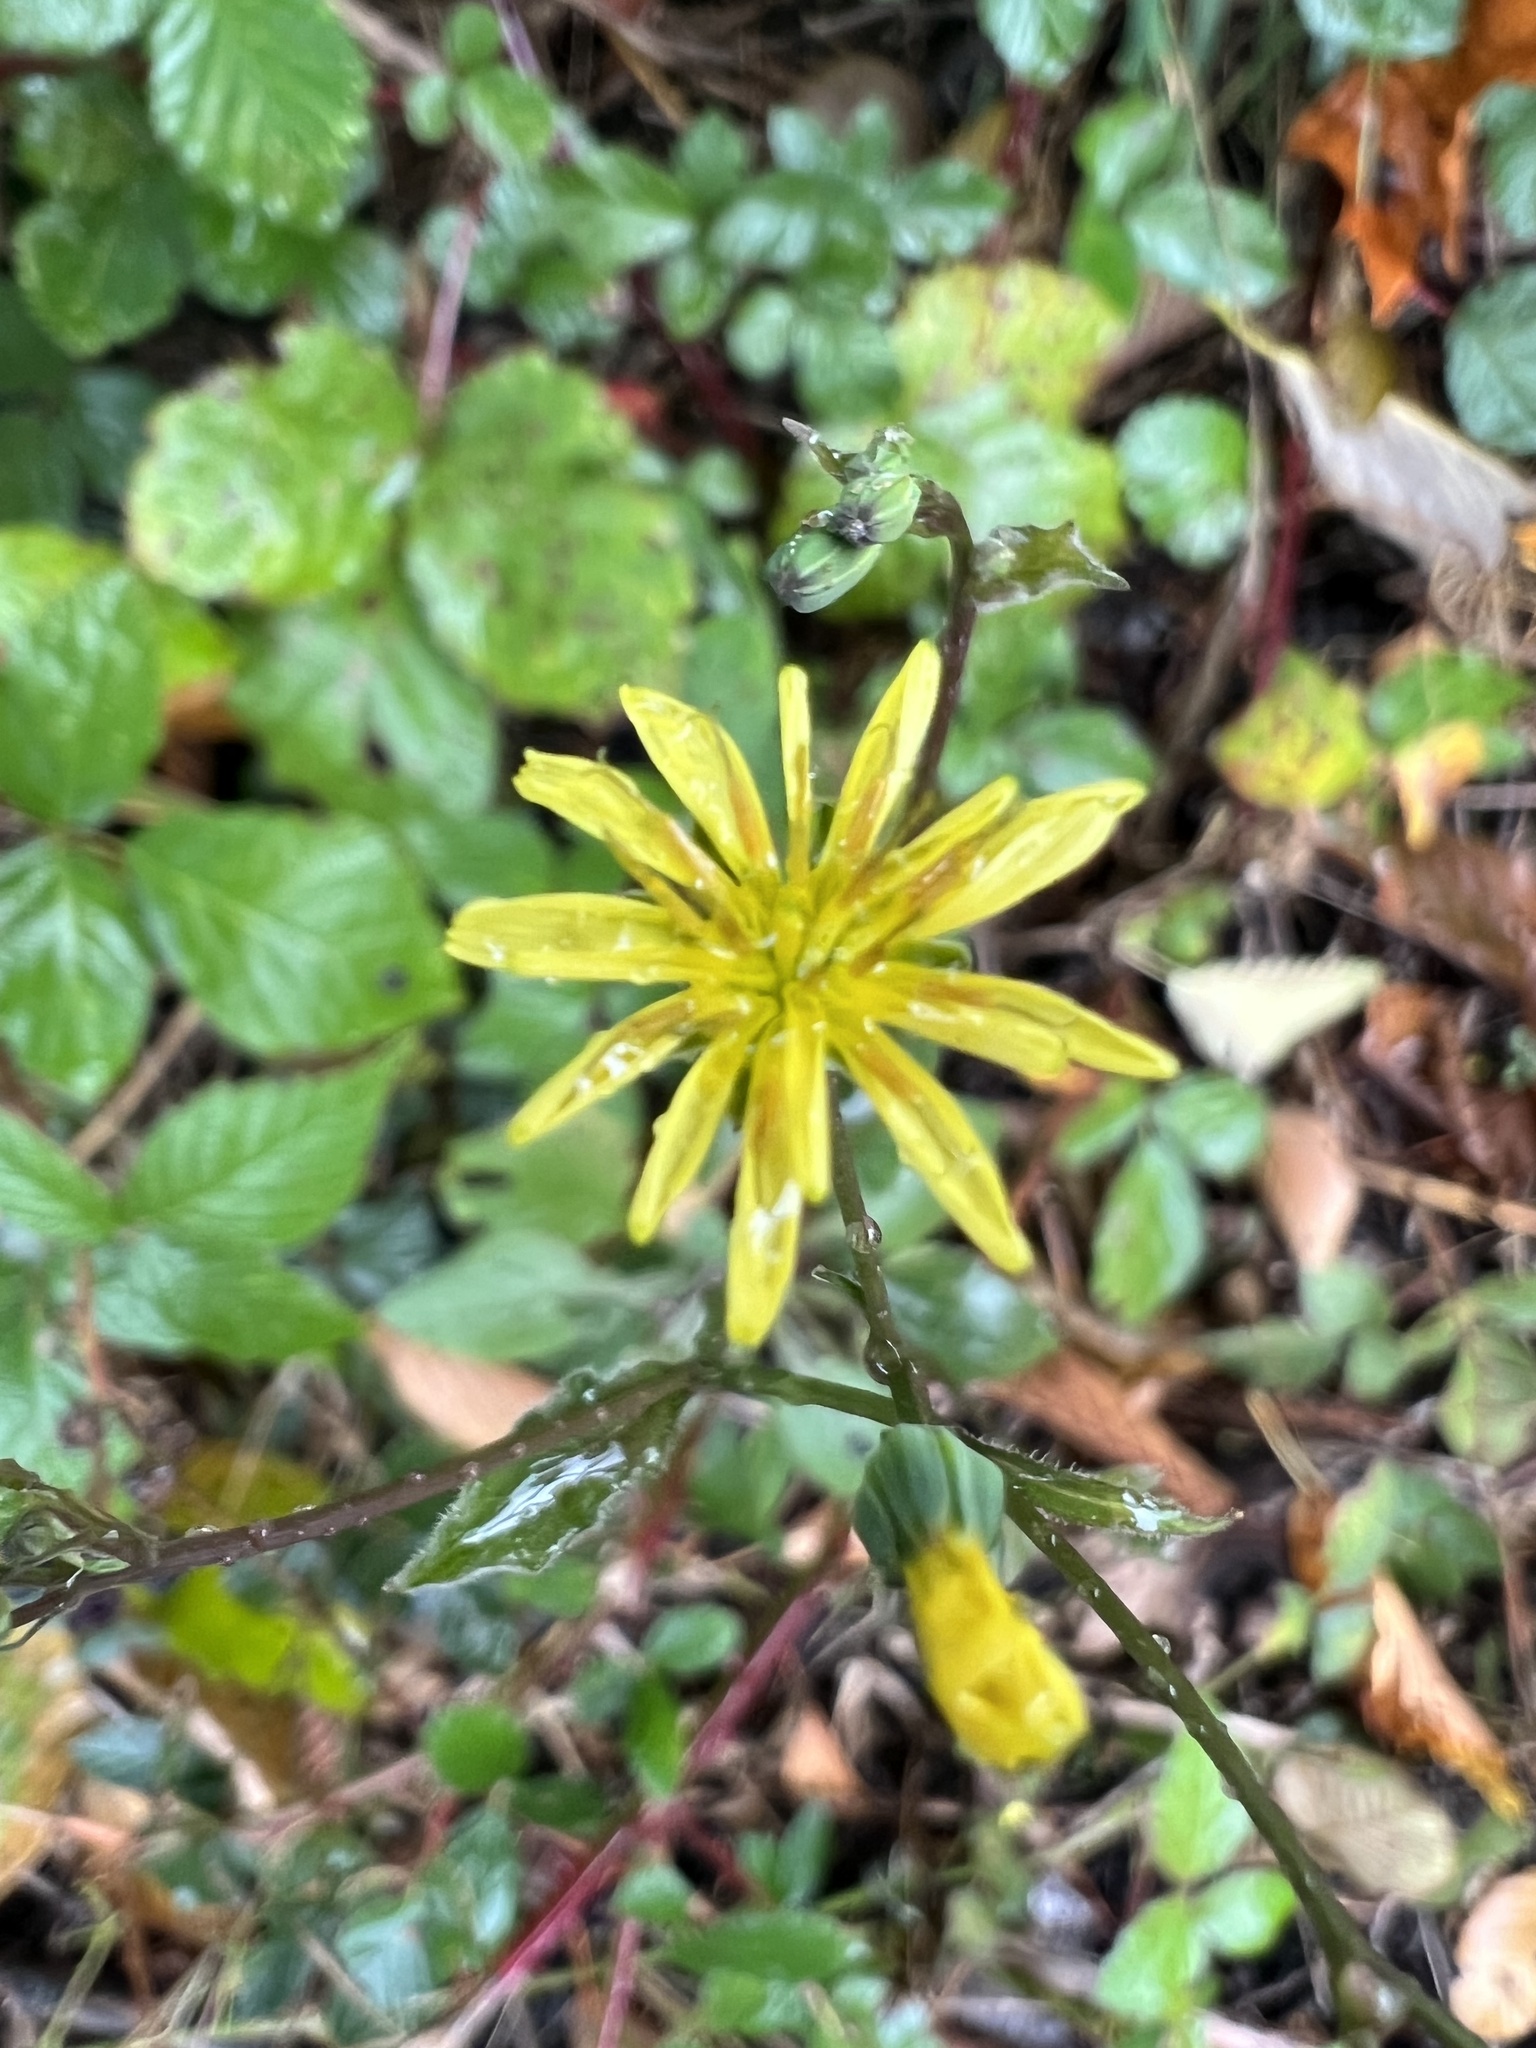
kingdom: Plantae
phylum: Tracheophyta
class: Magnoliopsida
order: Asterales
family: Asteraceae
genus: Lapsana
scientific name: Lapsana communis
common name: Nipplewort
